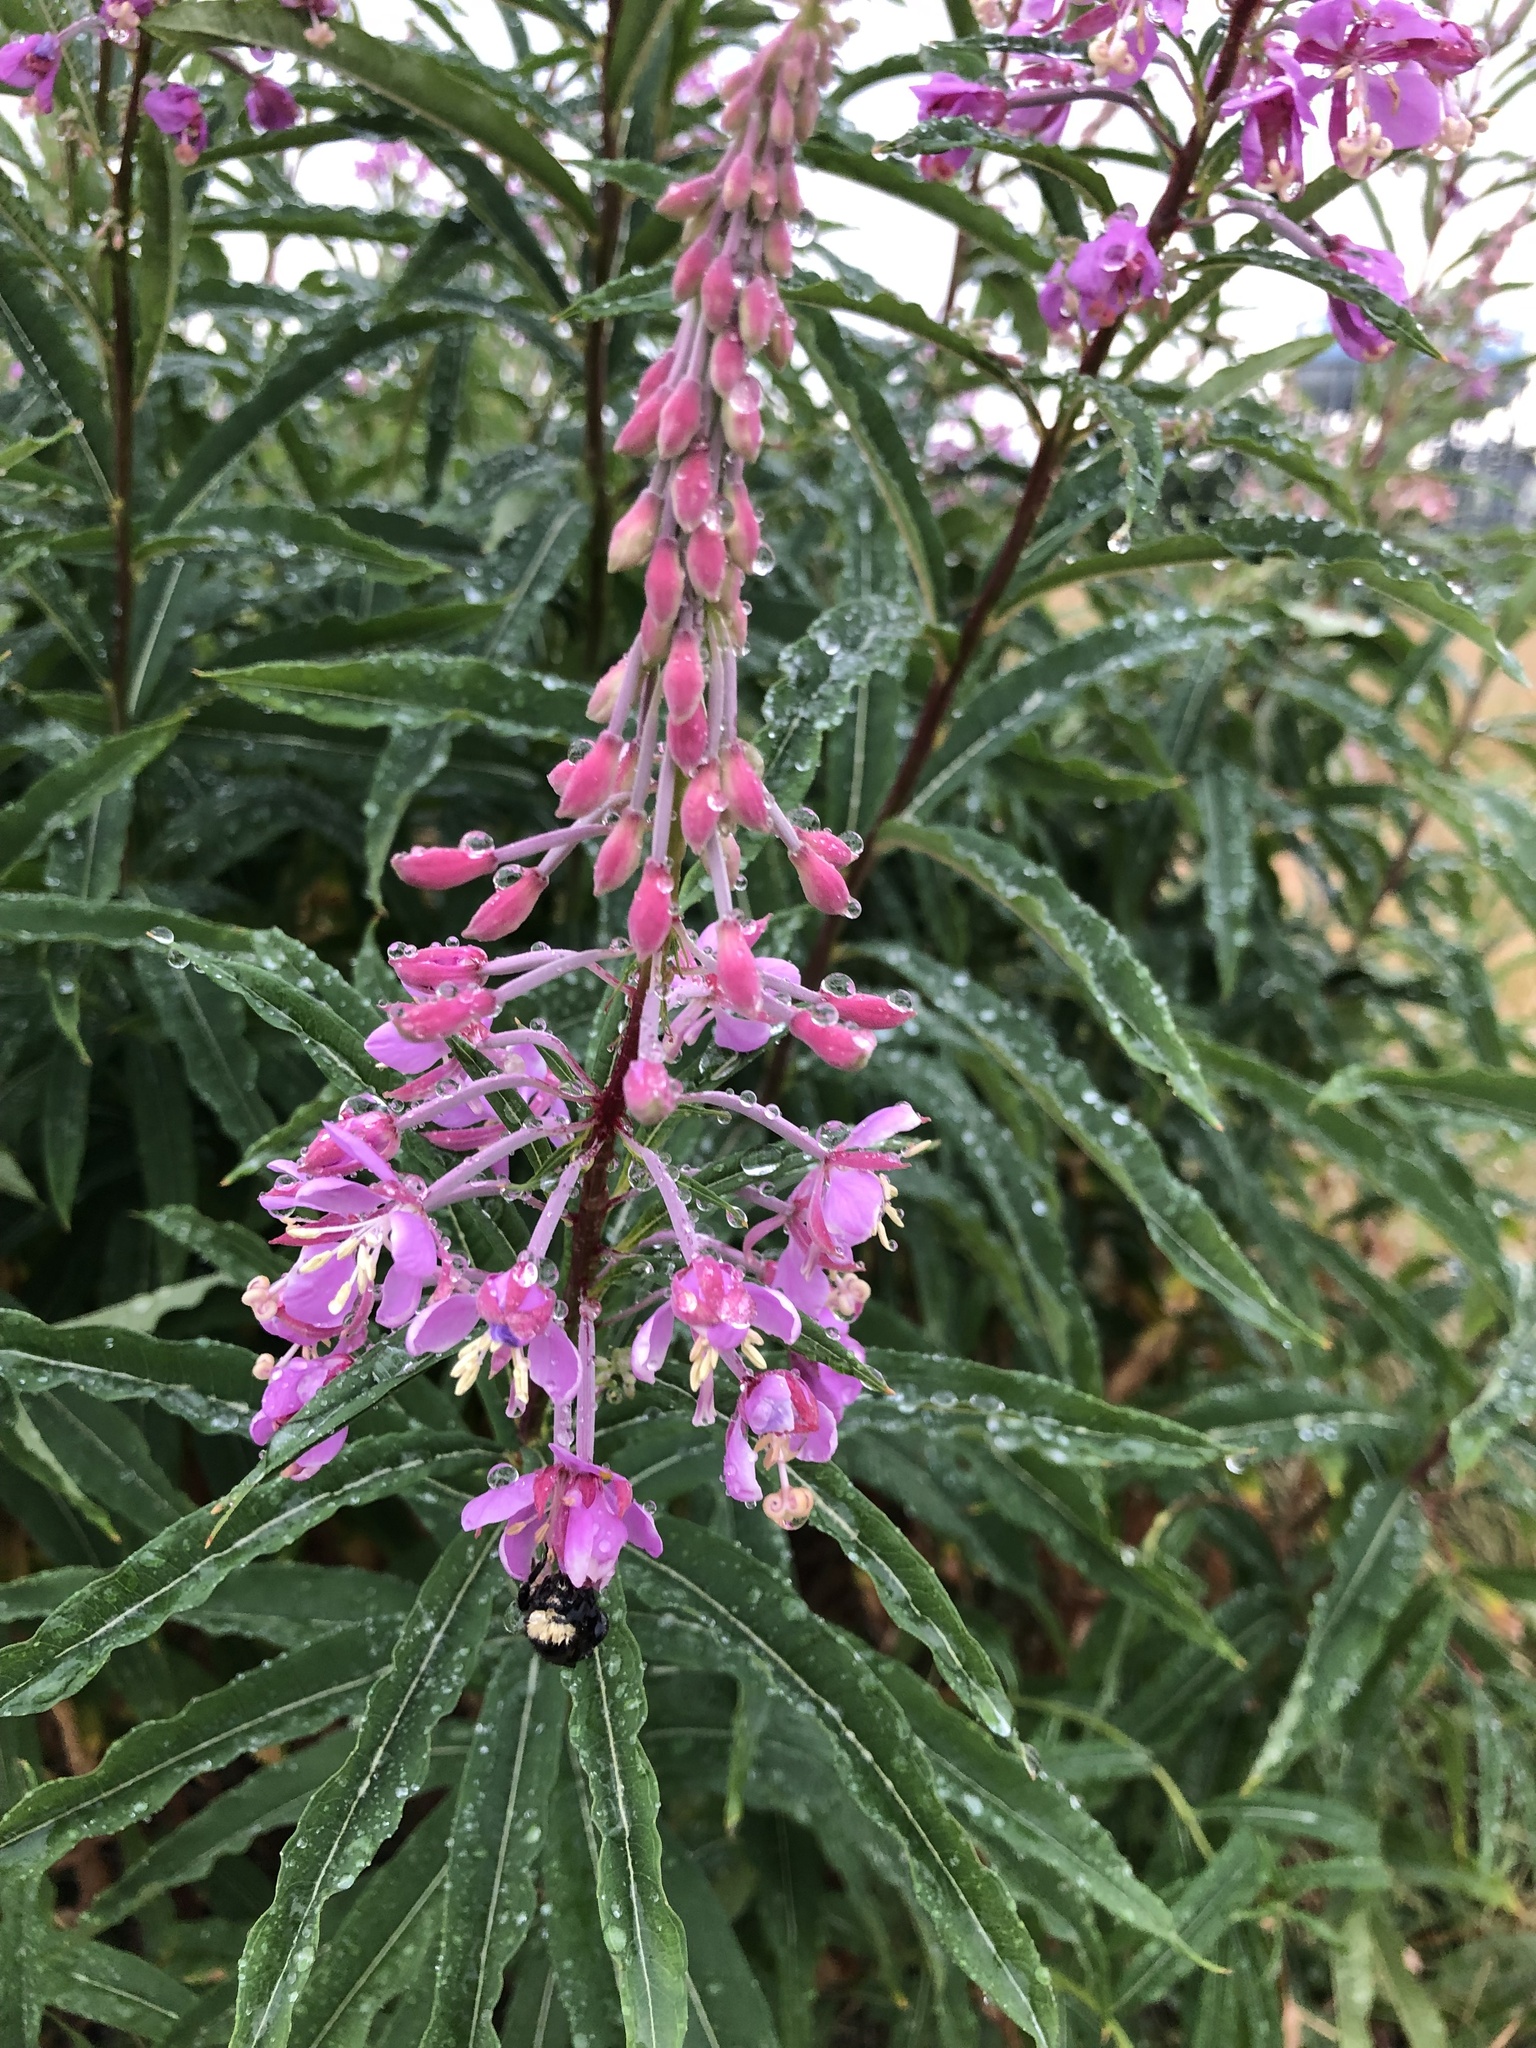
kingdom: Plantae
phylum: Tracheophyta
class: Magnoliopsida
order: Myrtales
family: Onagraceae
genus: Chamaenerion
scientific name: Chamaenerion angustifolium
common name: Fireweed
